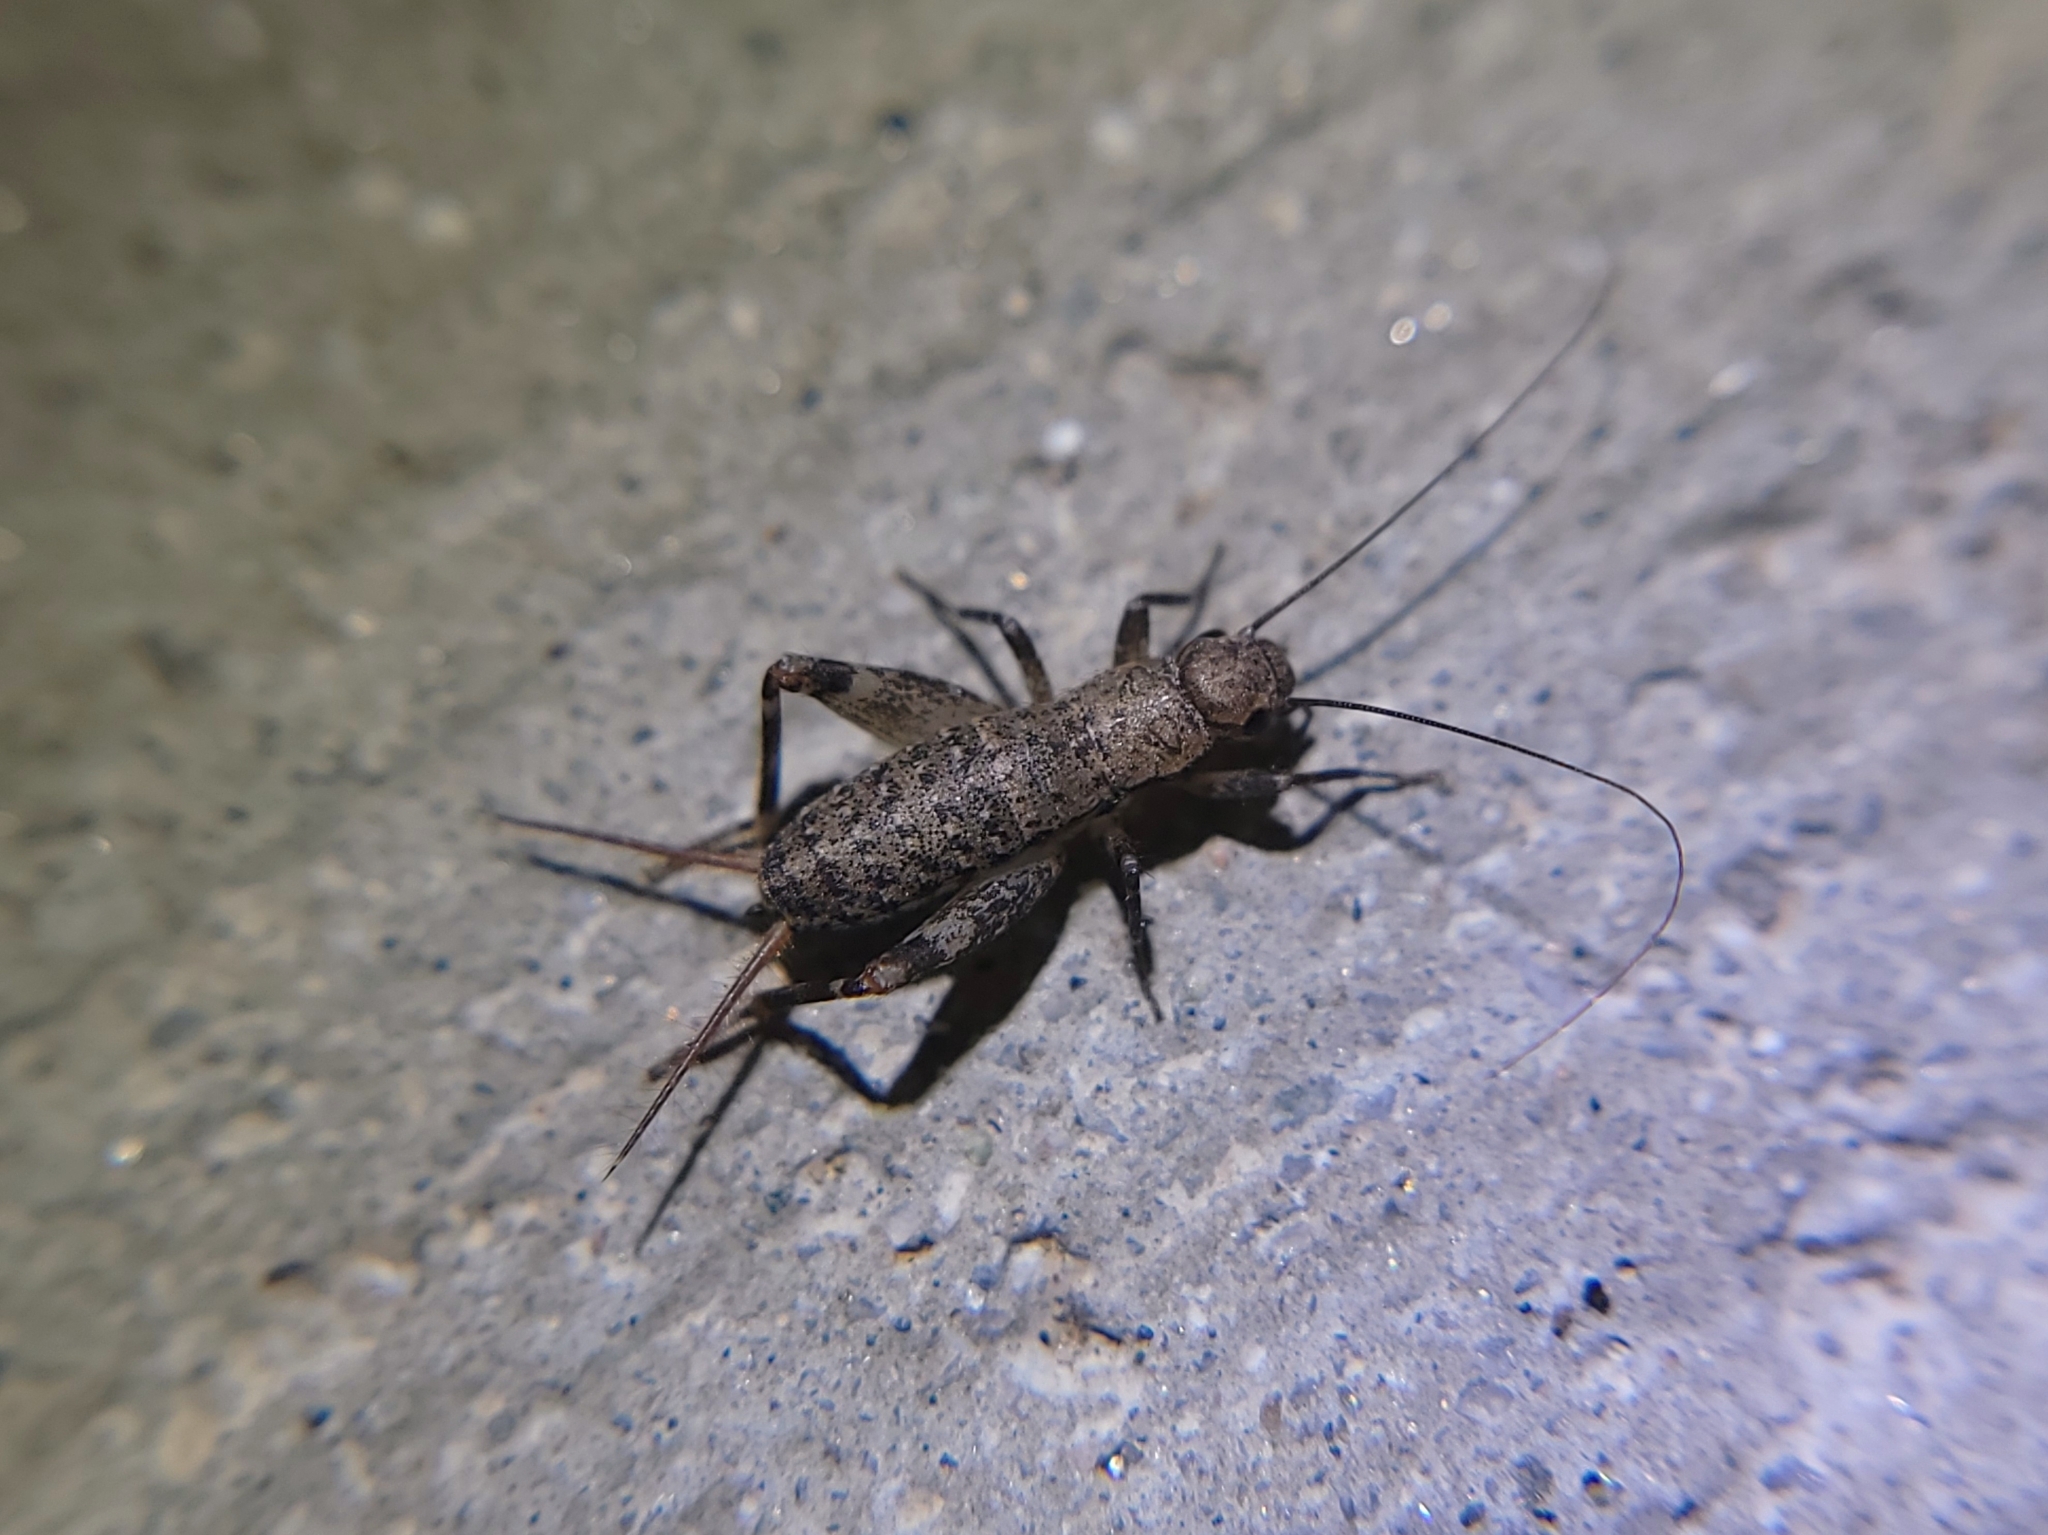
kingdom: Animalia
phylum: Arthropoda
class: Insecta
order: Orthoptera
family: Mogoplistidae
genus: Hoplosphyrum
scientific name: Hoplosphyrum boreale
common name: Long-winged scaly cricket
